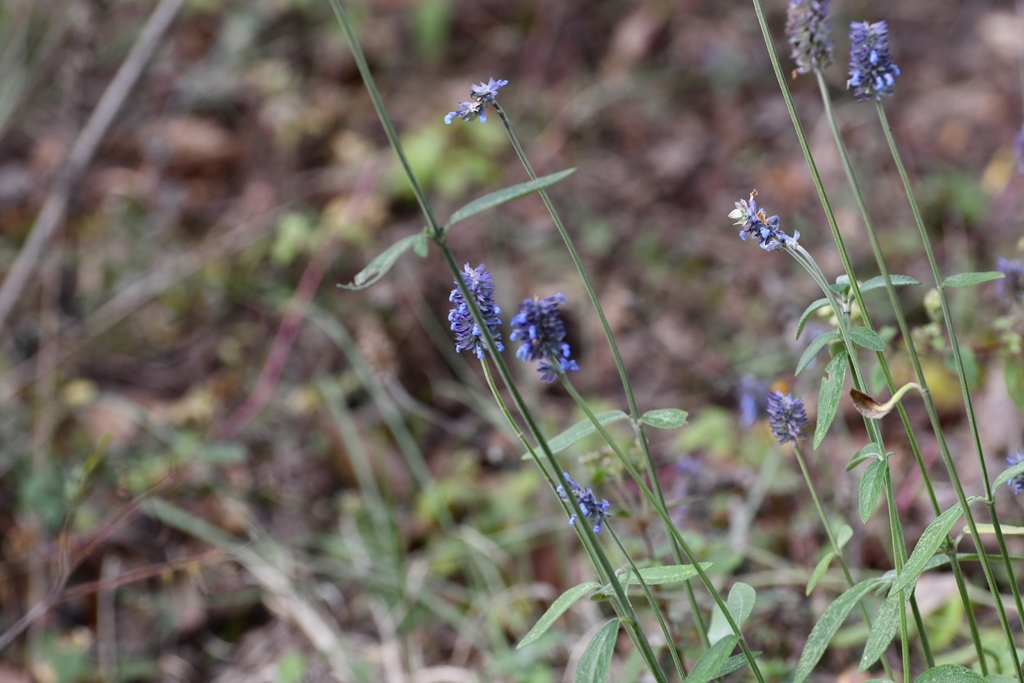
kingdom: Plantae
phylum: Tracheophyta
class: Magnoliopsida
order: Lamiales
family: Lamiaceae
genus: Salvia
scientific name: Salvia lavanduloides
